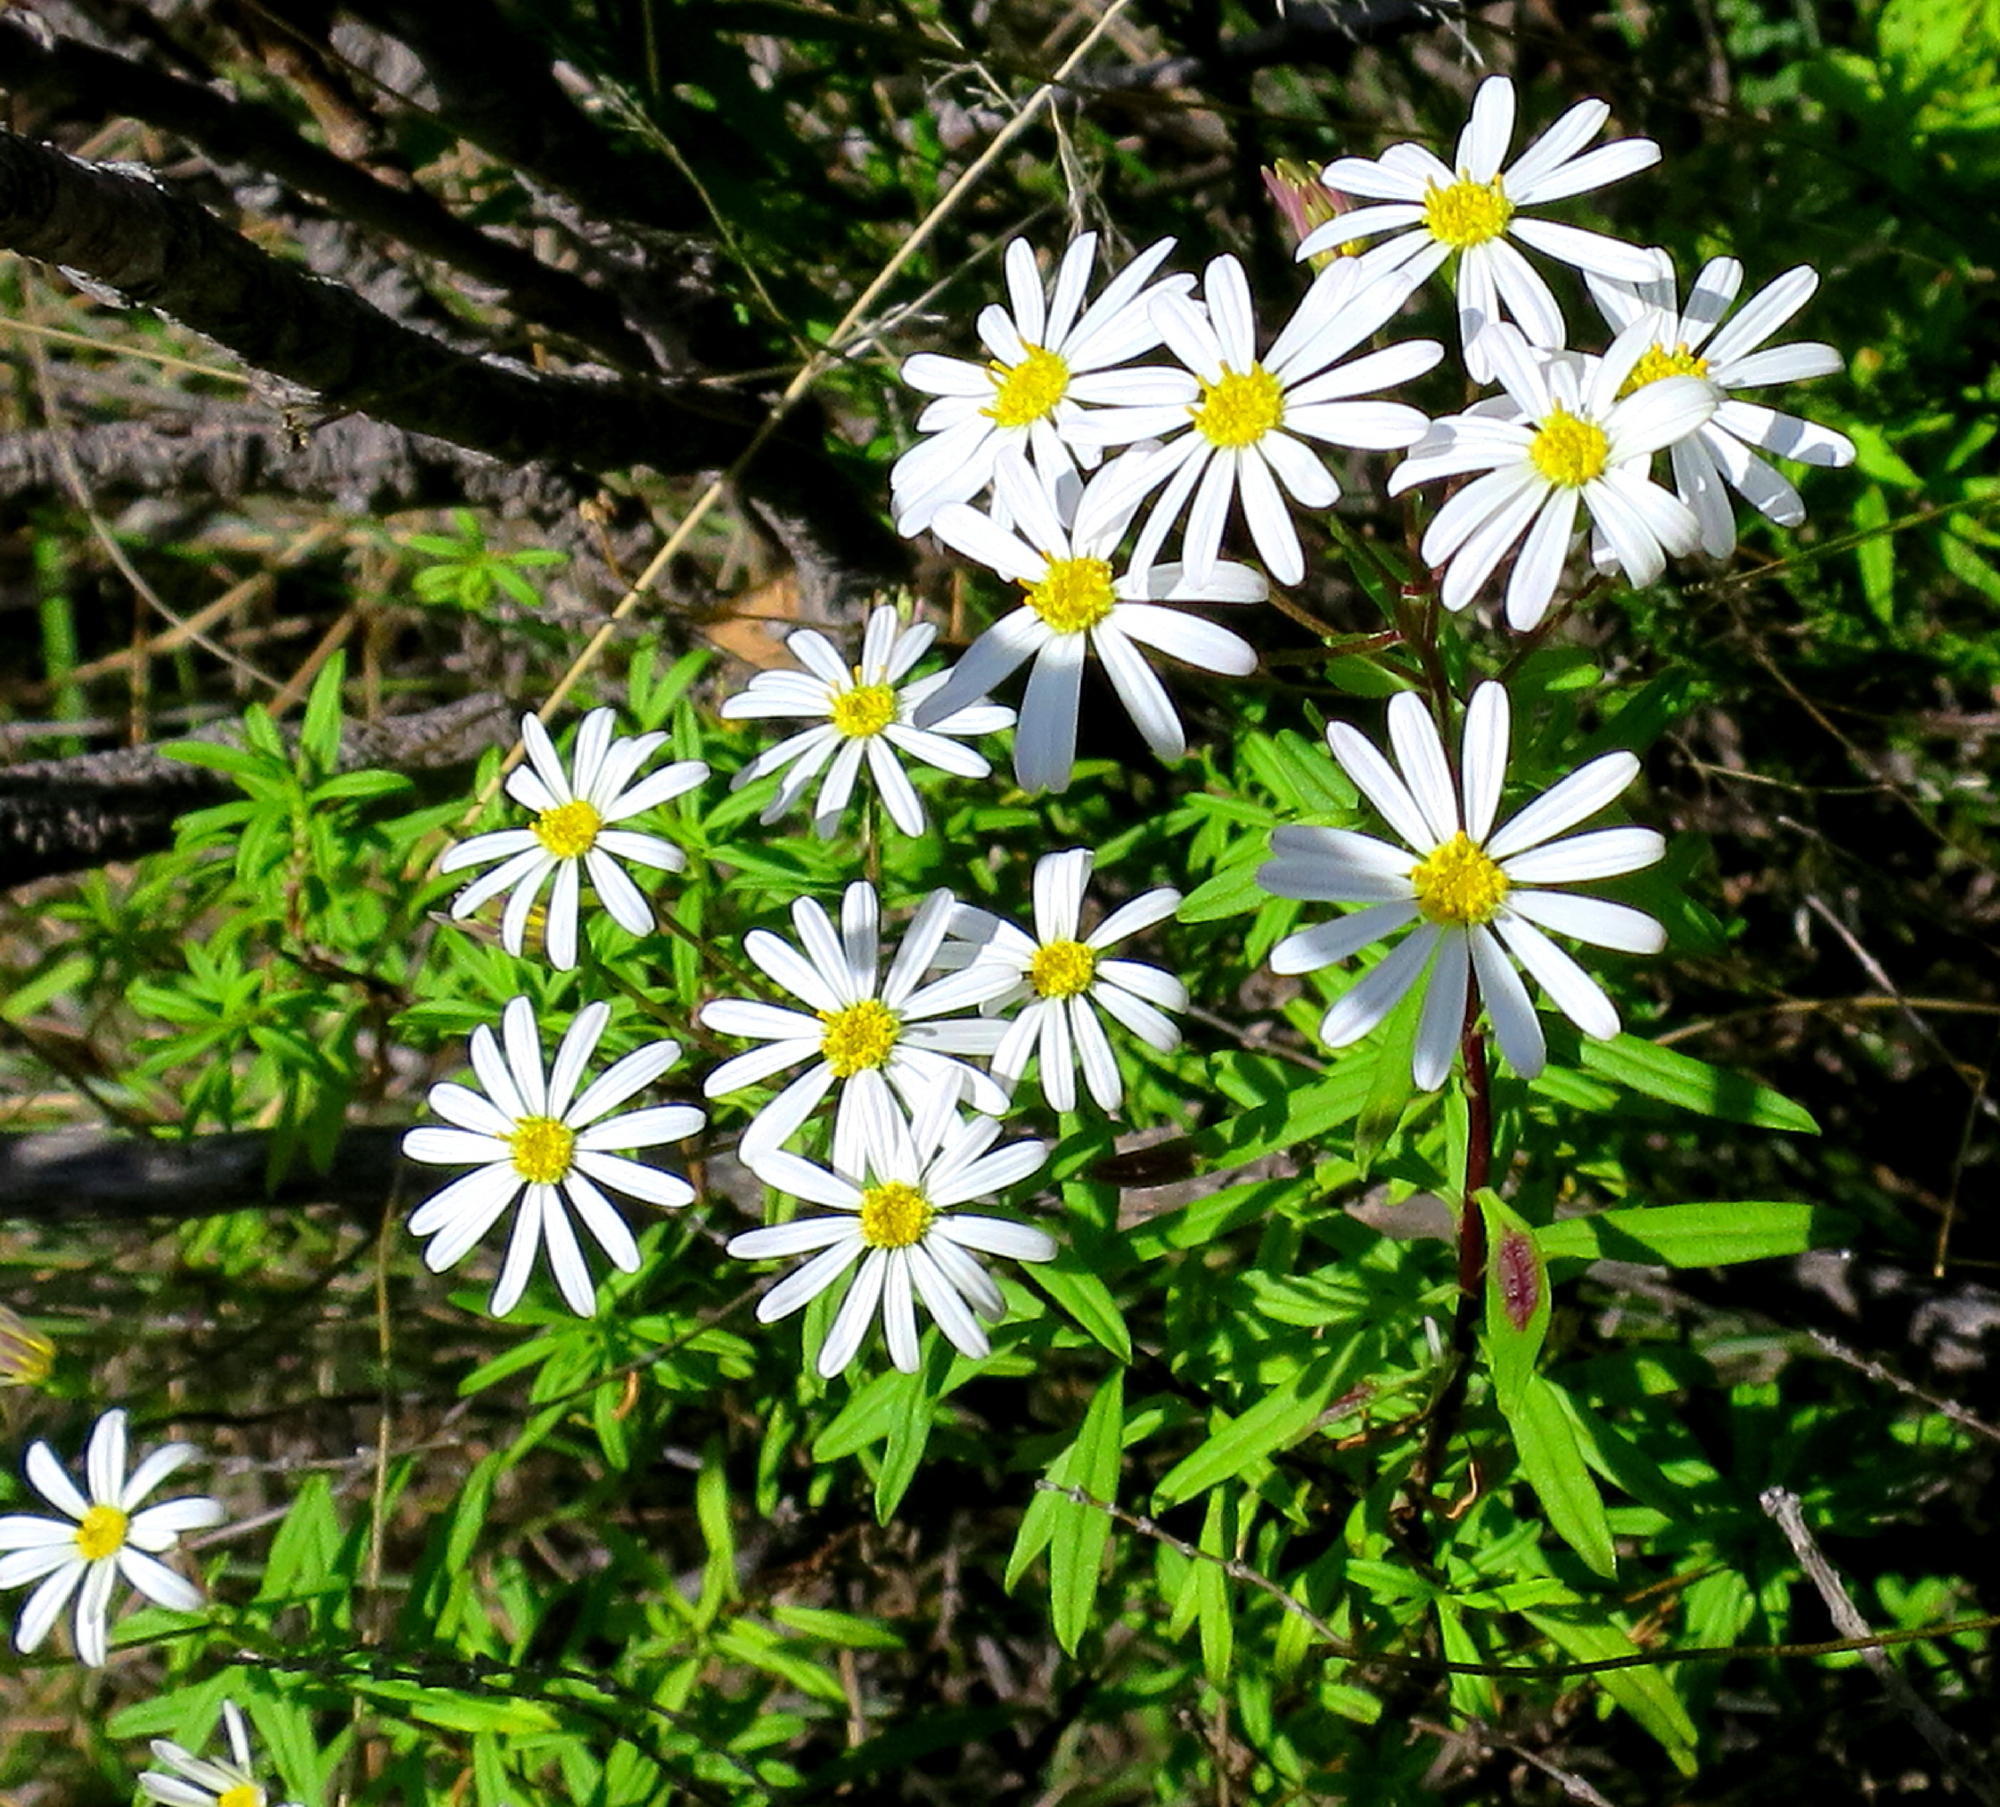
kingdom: Plantae
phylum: Tracheophyta
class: Magnoliopsida
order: Asterales
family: Asteraceae
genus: Felicia
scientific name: Felicia douglasii
